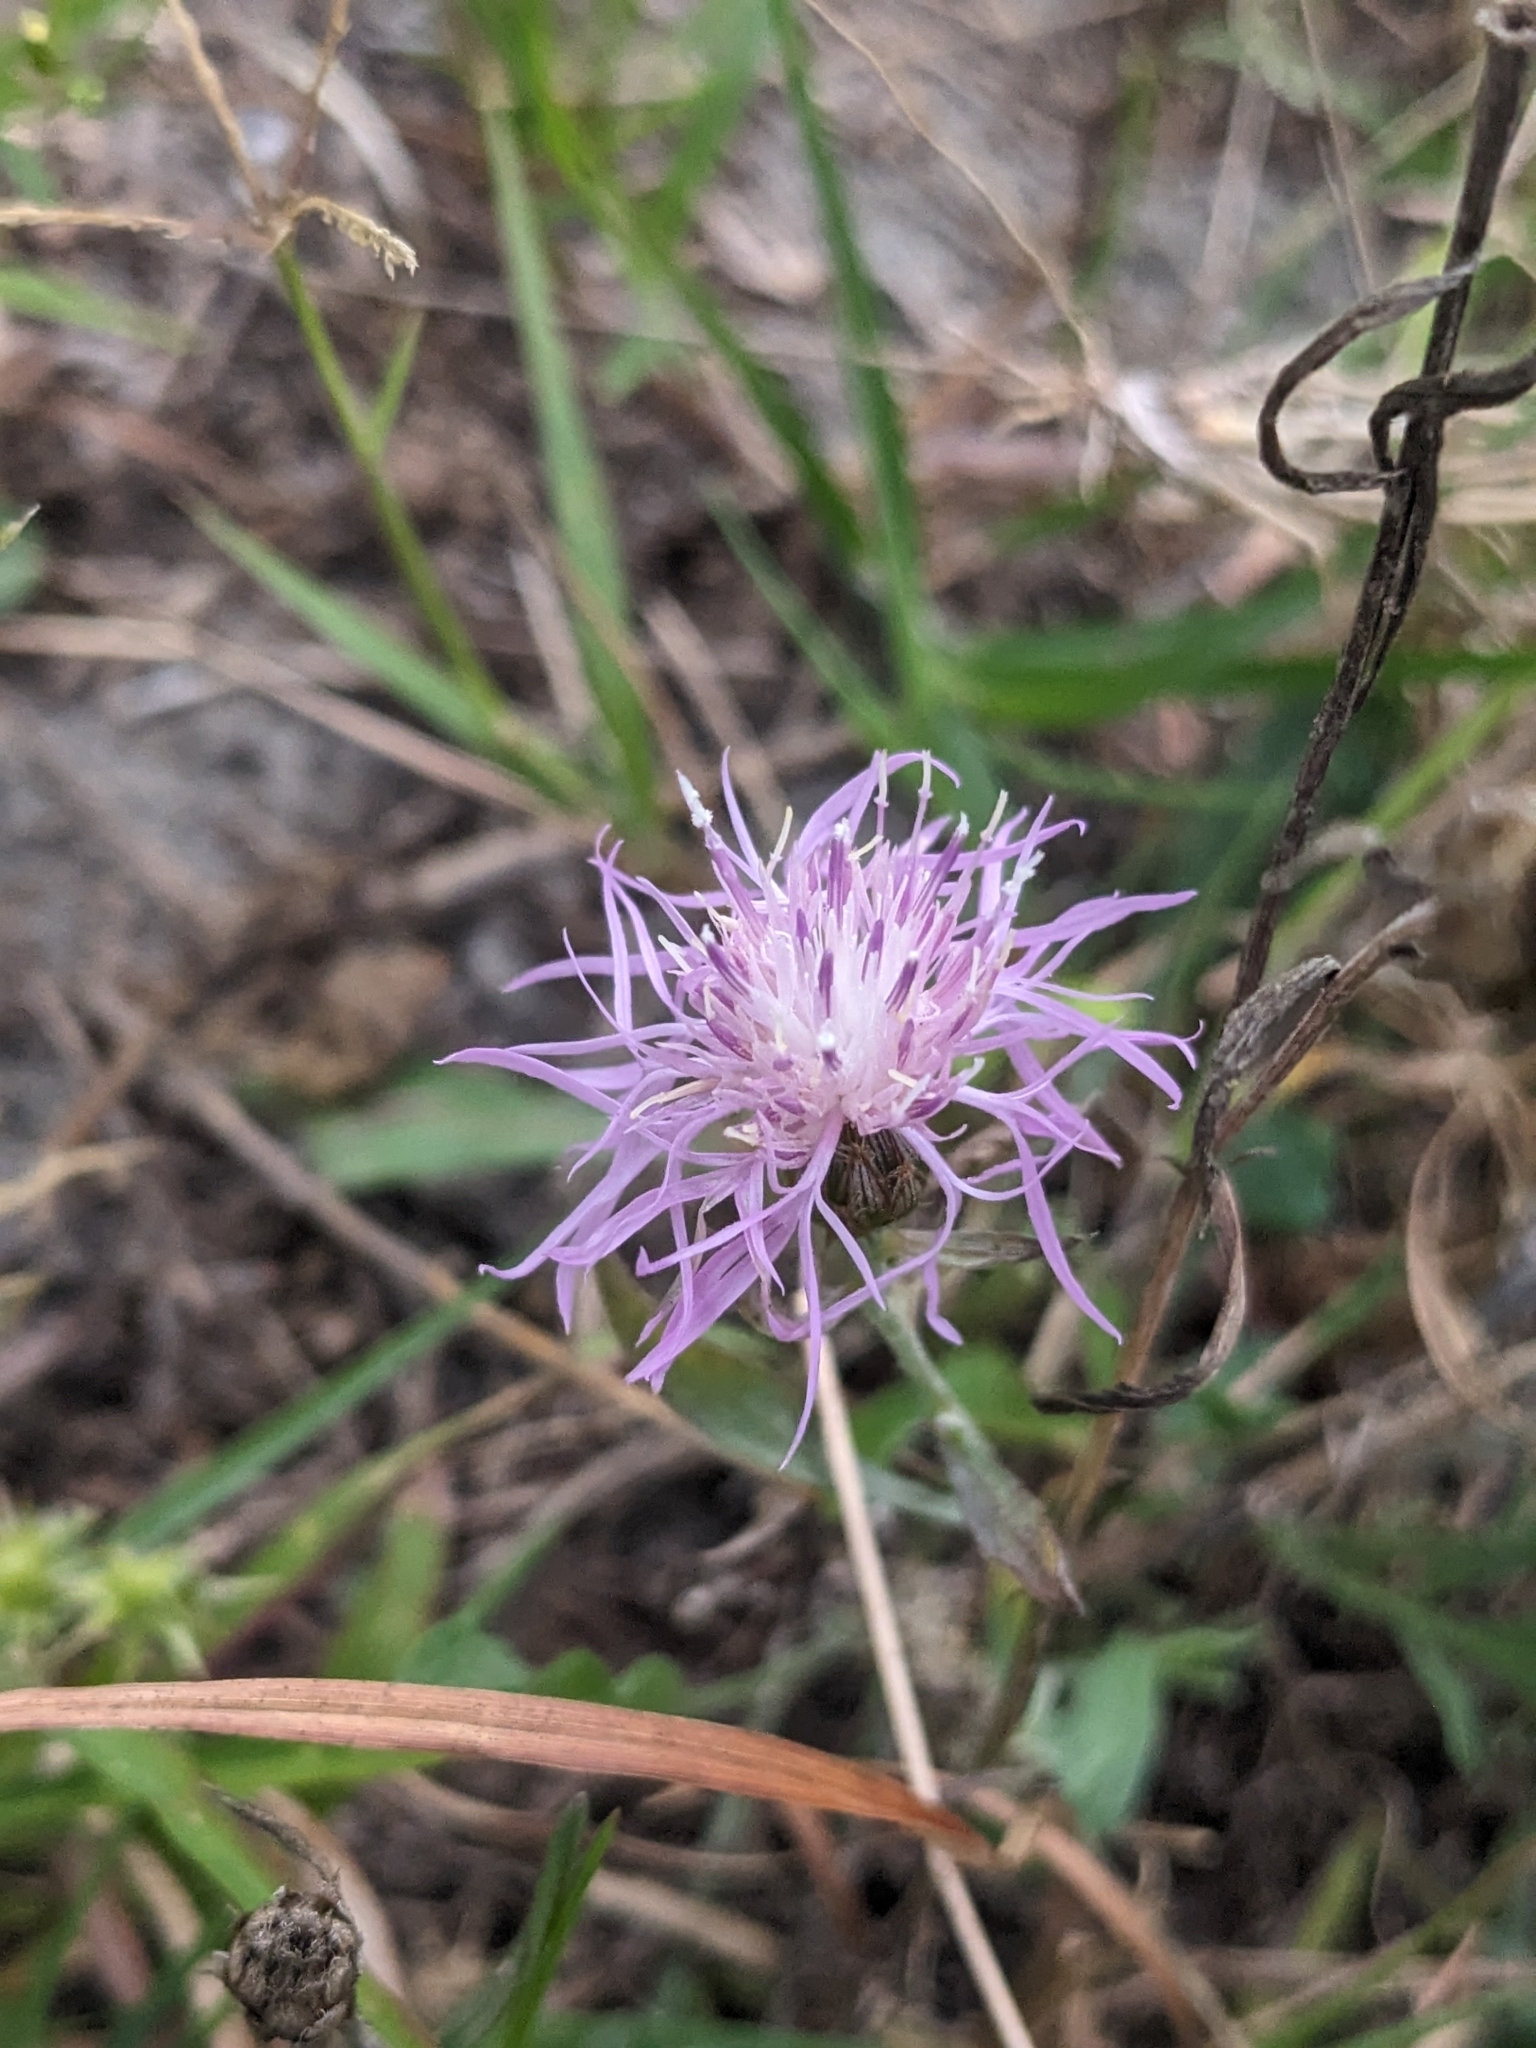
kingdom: Plantae
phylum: Tracheophyta
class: Magnoliopsida
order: Asterales
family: Asteraceae
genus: Centaurea
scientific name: Centaurea stoebe
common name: Spotted knapweed
